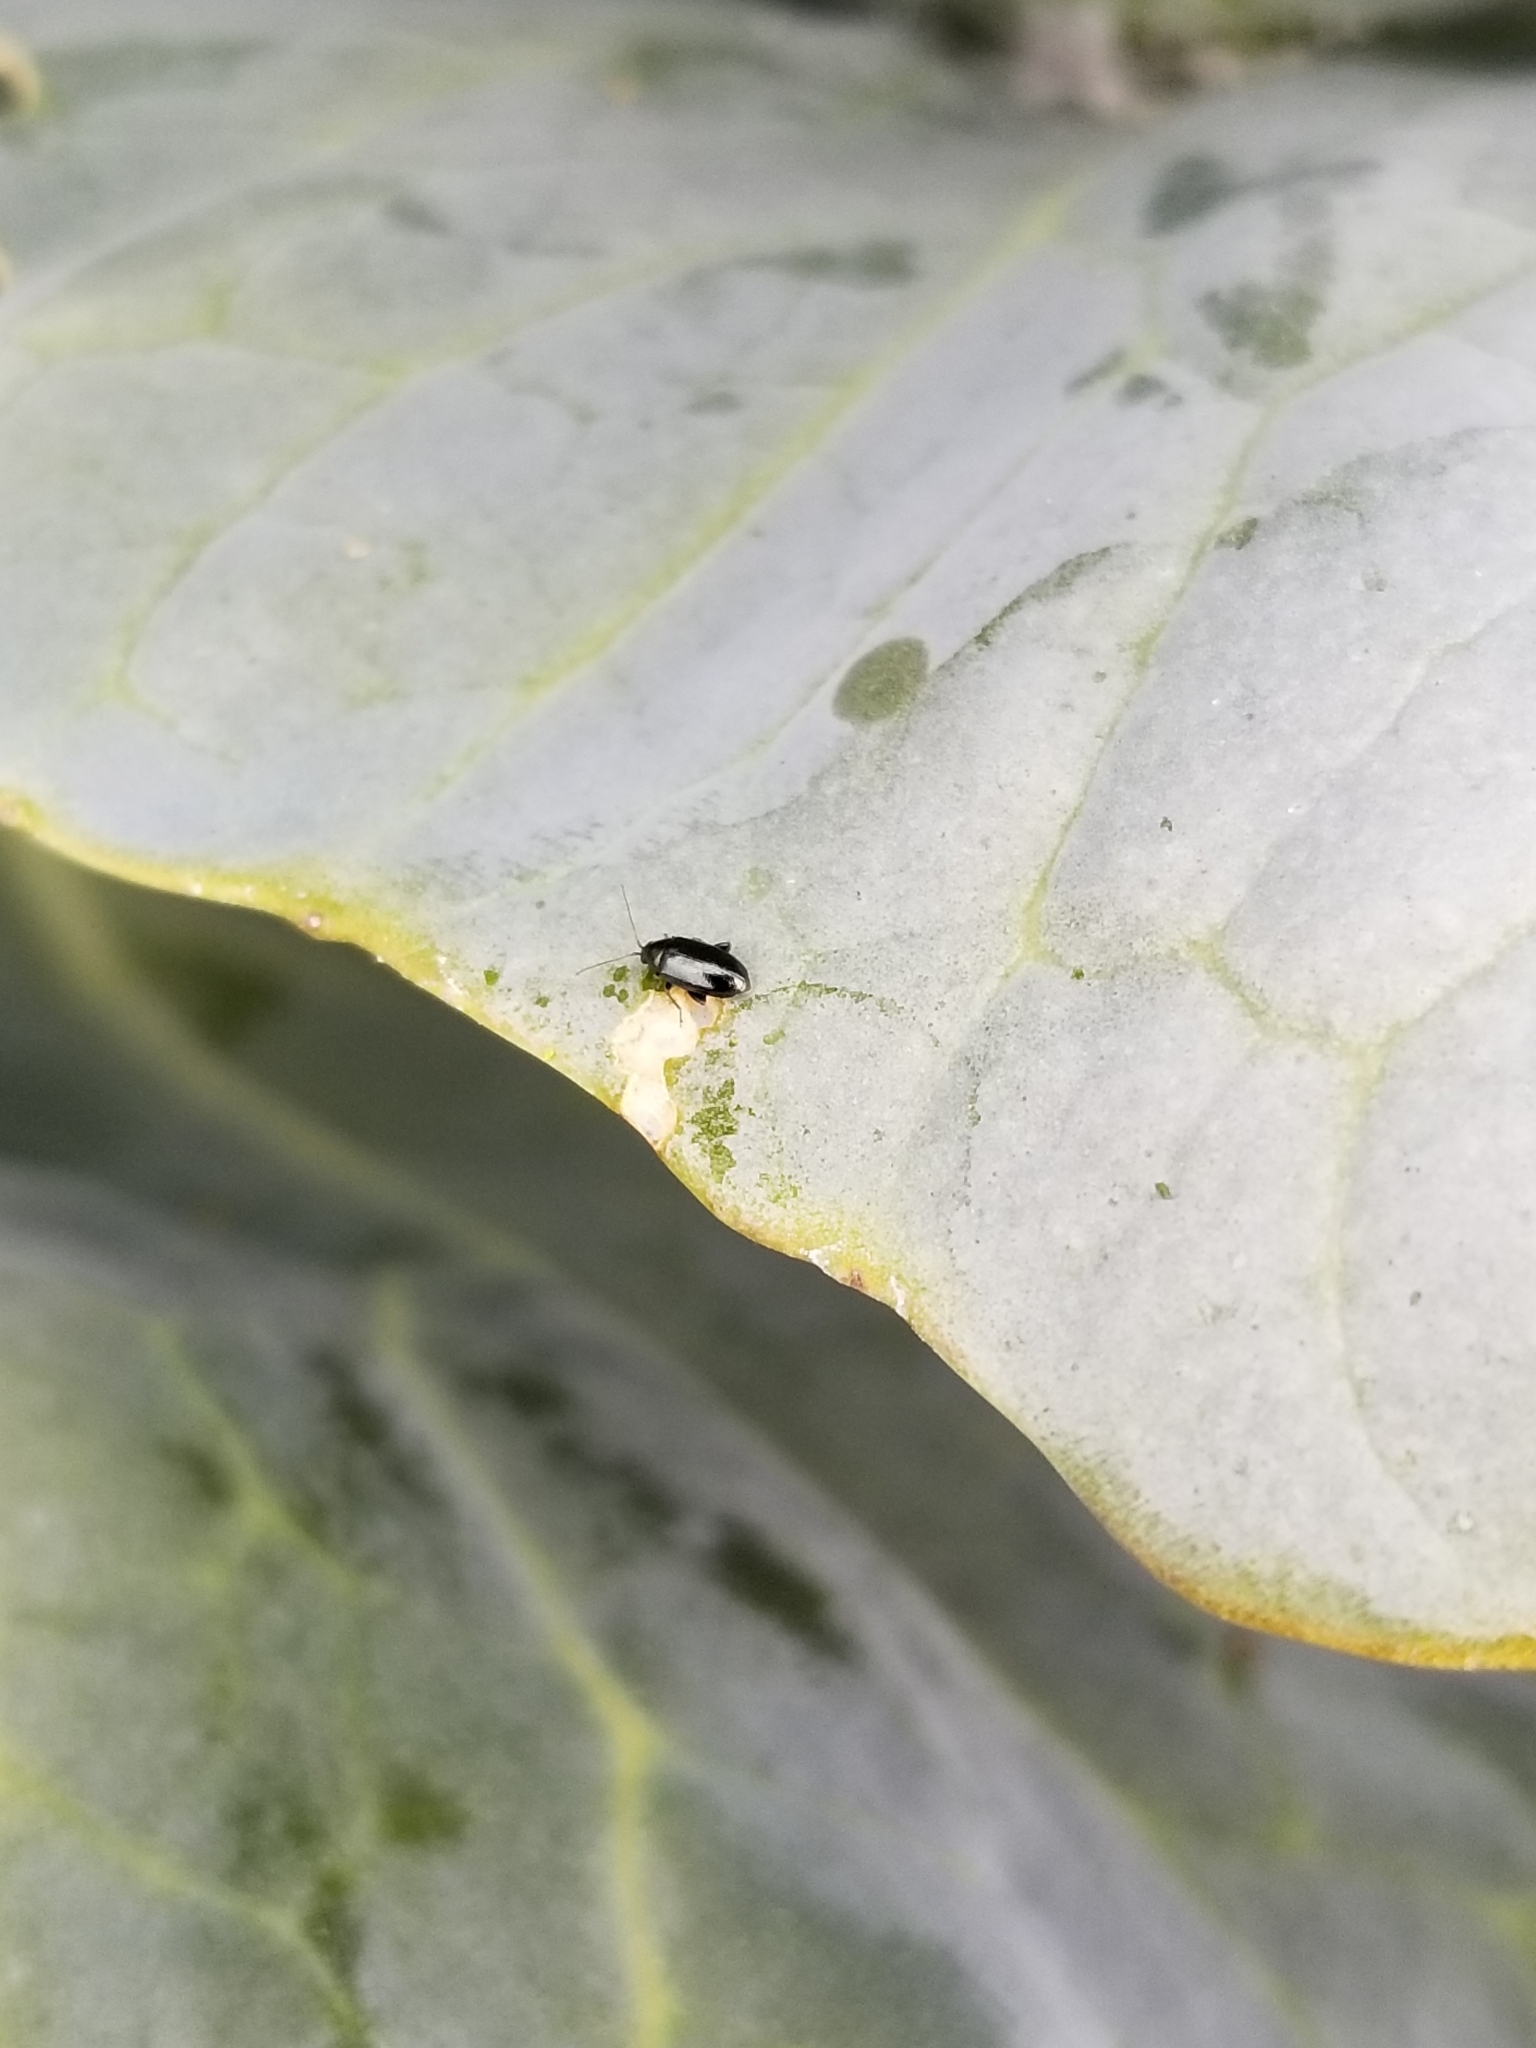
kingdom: Animalia
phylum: Arthropoda
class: Insecta
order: Coleoptera
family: Chrysomelidae
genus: Phyllotreta
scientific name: Phyllotreta cruciferae
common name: Crucifer flea beetle
